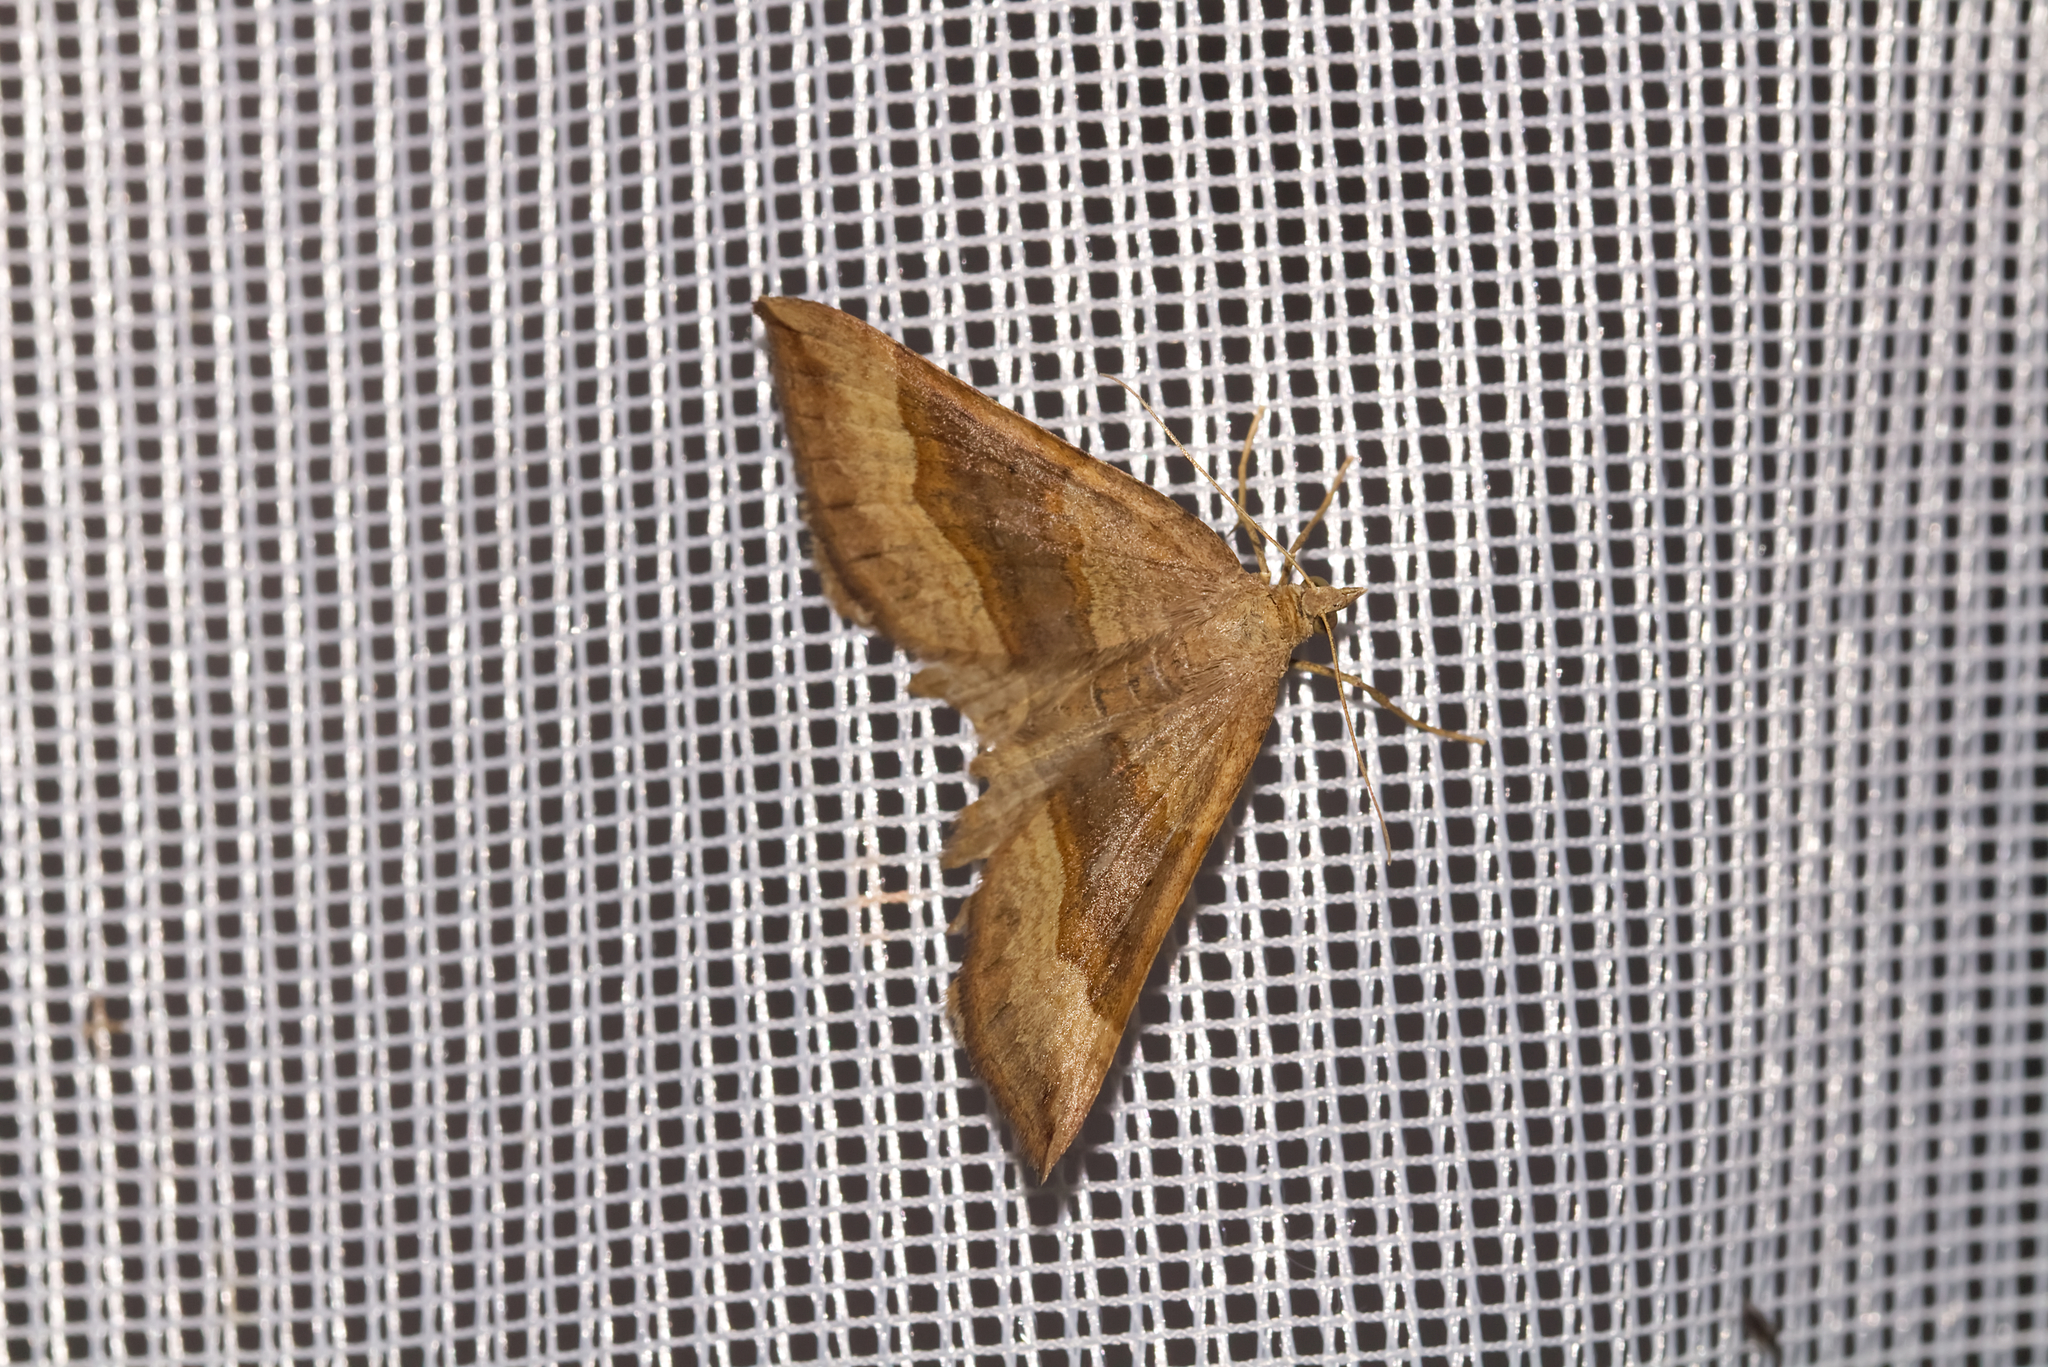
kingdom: Animalia
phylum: Arthropoda
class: Insecta
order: Lepidoptera
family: Geometridae
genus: Scotopteryx
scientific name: Scotopteryx chenopodiata
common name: Shaded broad-bar
